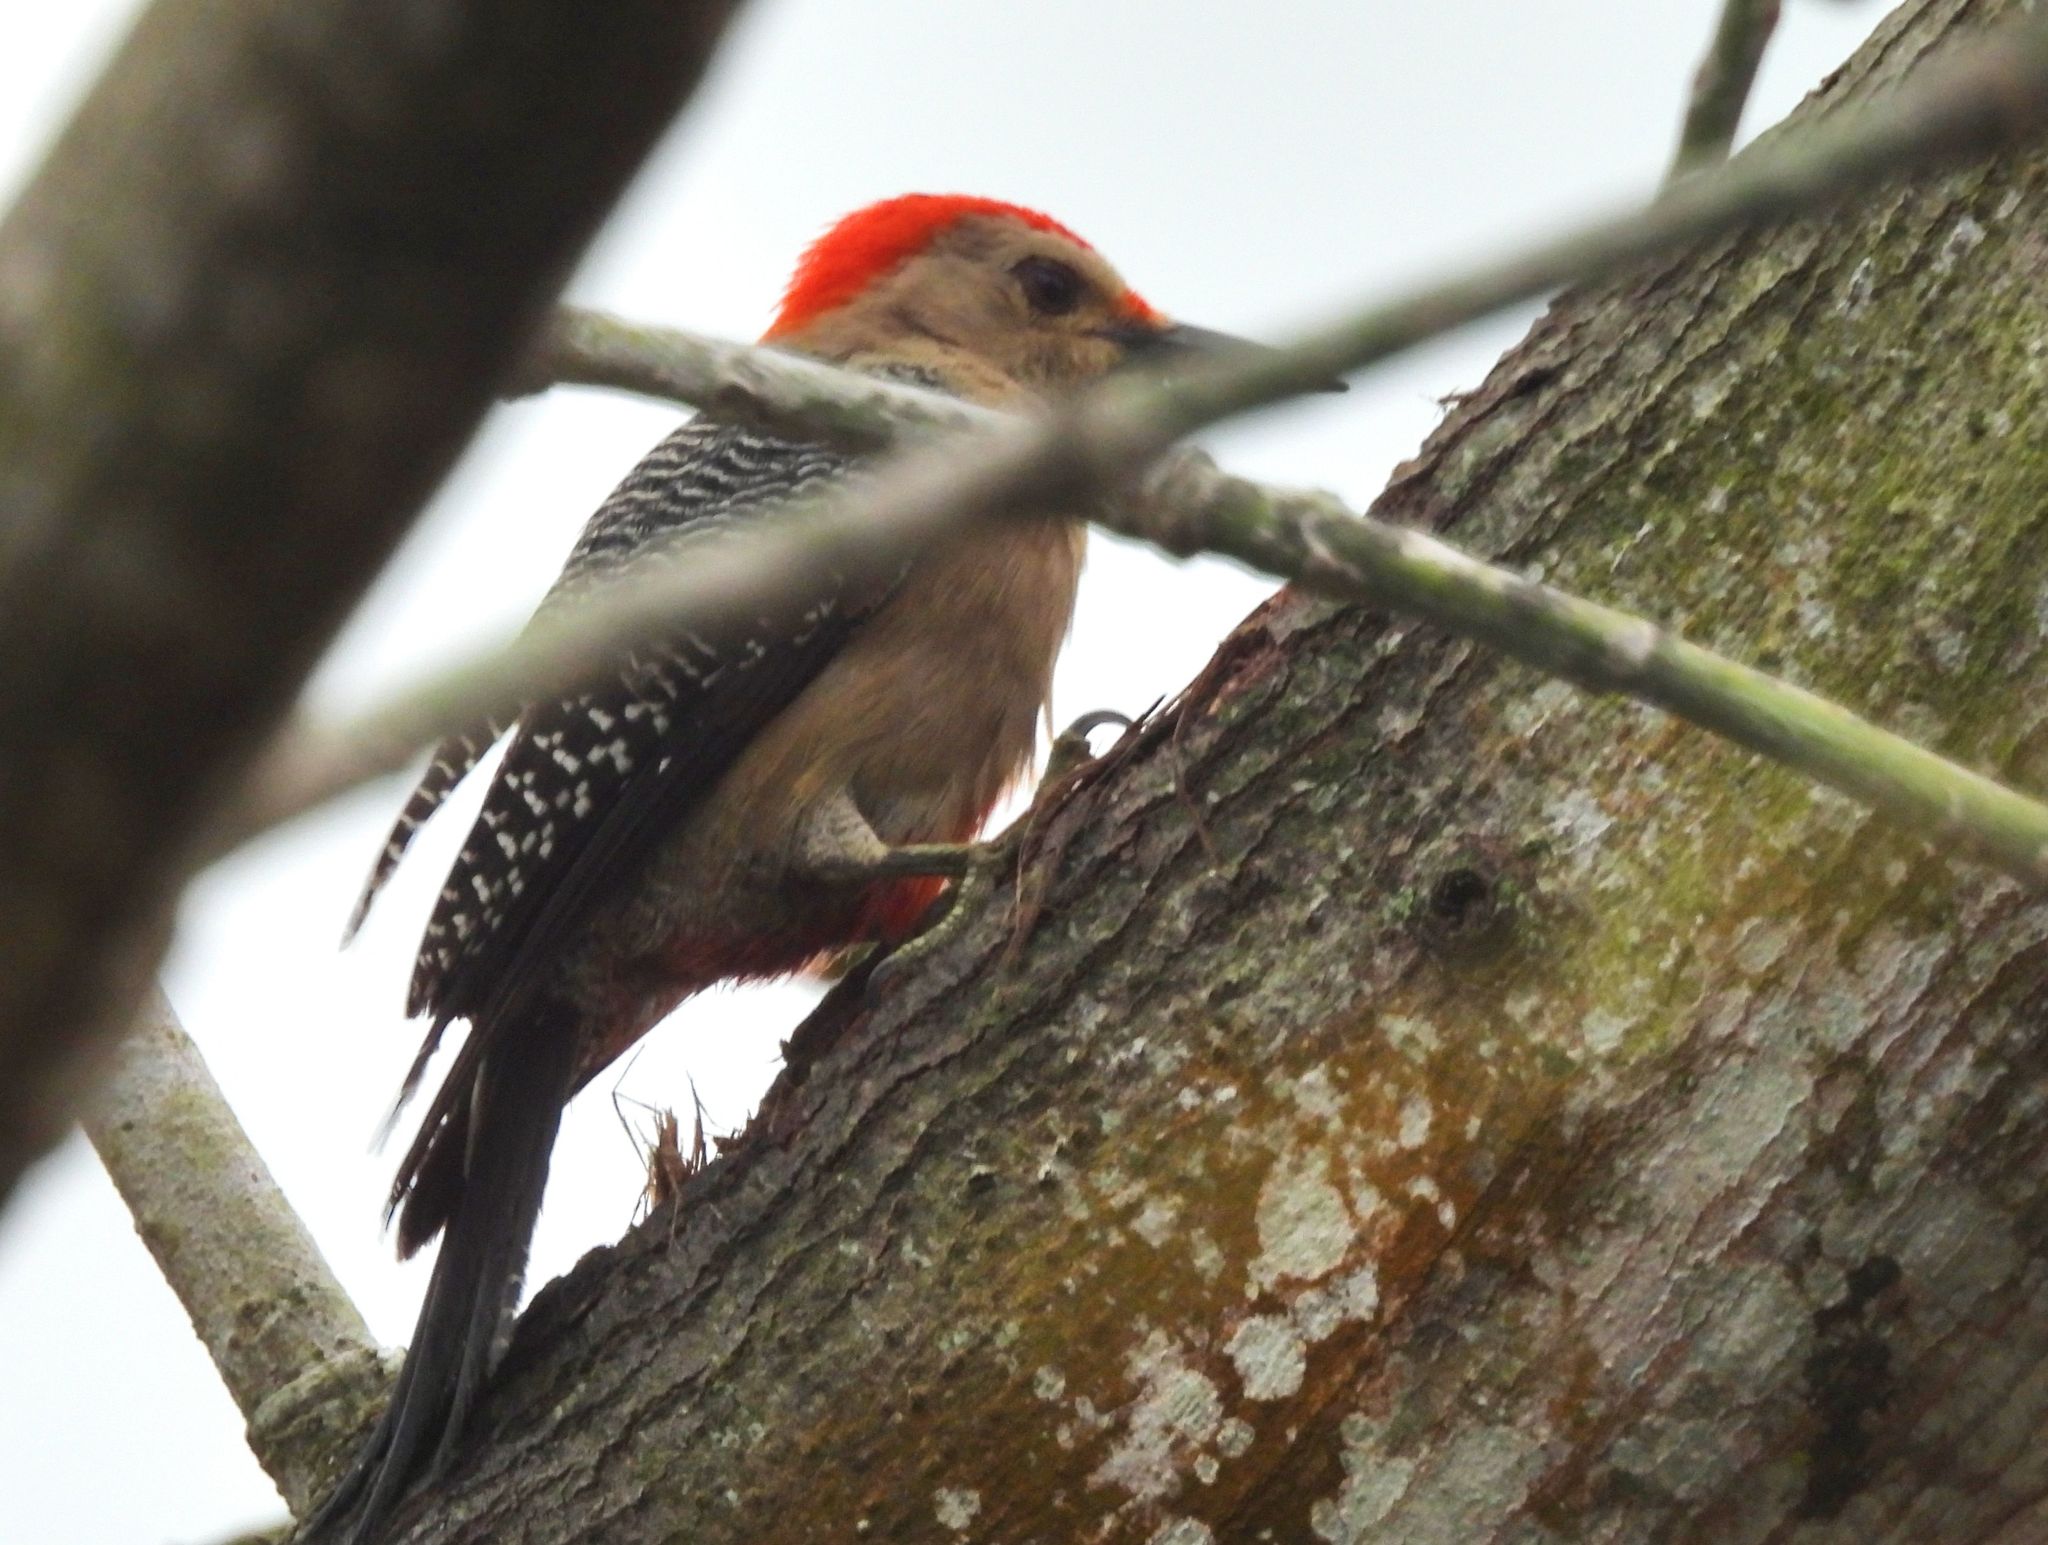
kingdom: Animalia
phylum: Chordata
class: Aves
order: Piciformes
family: Picidae
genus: Melanerpes
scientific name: Melanerpes aurifrons
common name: Golden-fronted woodpecker
